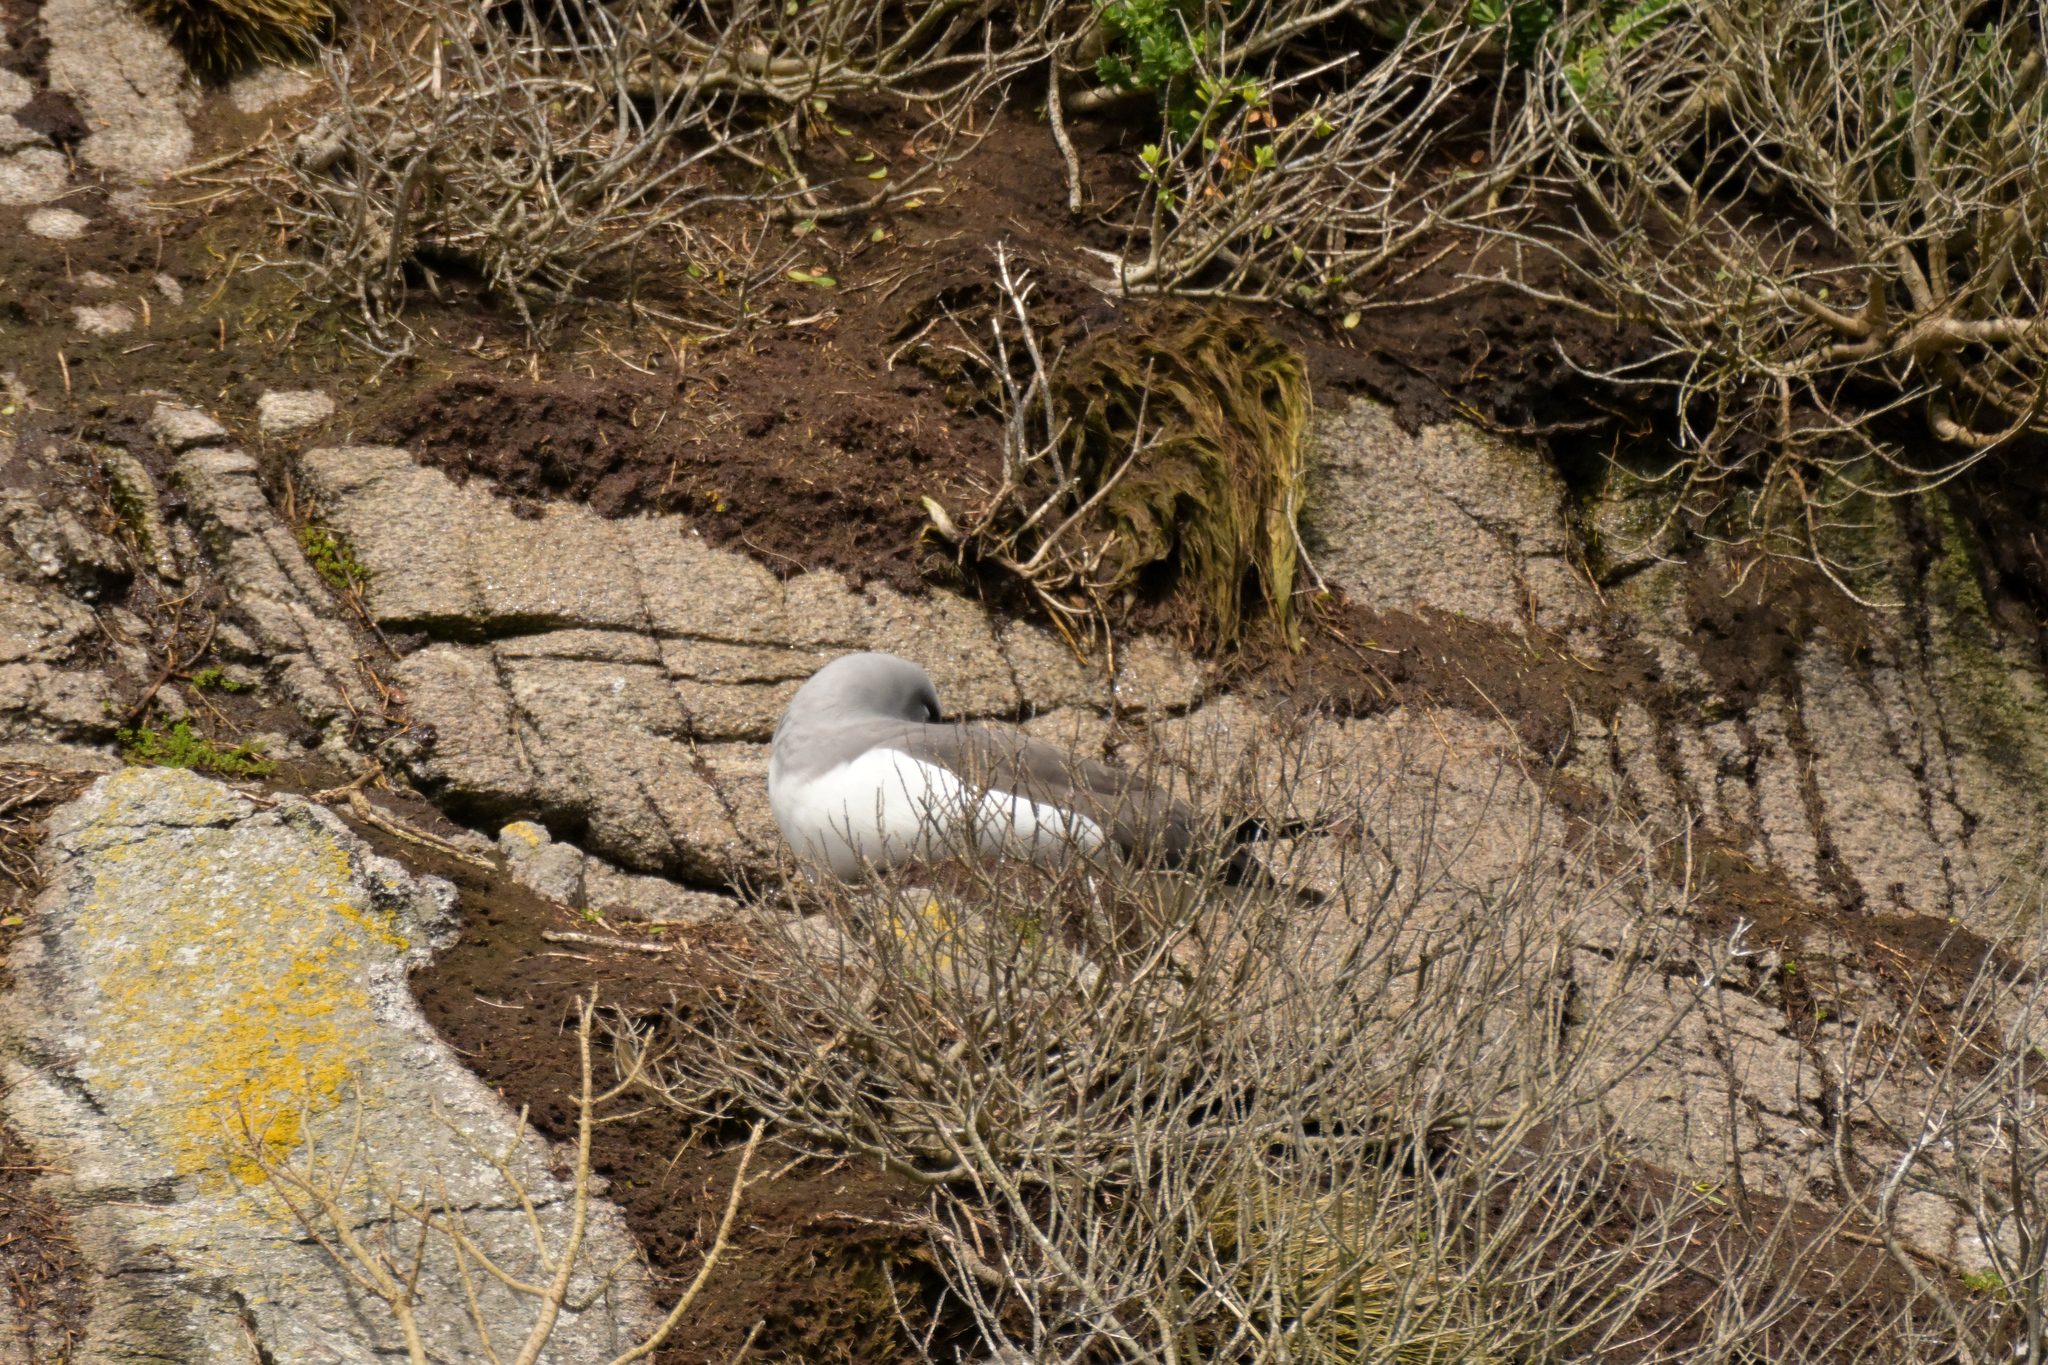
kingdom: Animalia
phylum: Chordata
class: Aves
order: Procellariiformes
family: Diomedeidae
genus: Thalassarche
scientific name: Thalassarche salvini
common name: Salvin's albatross
